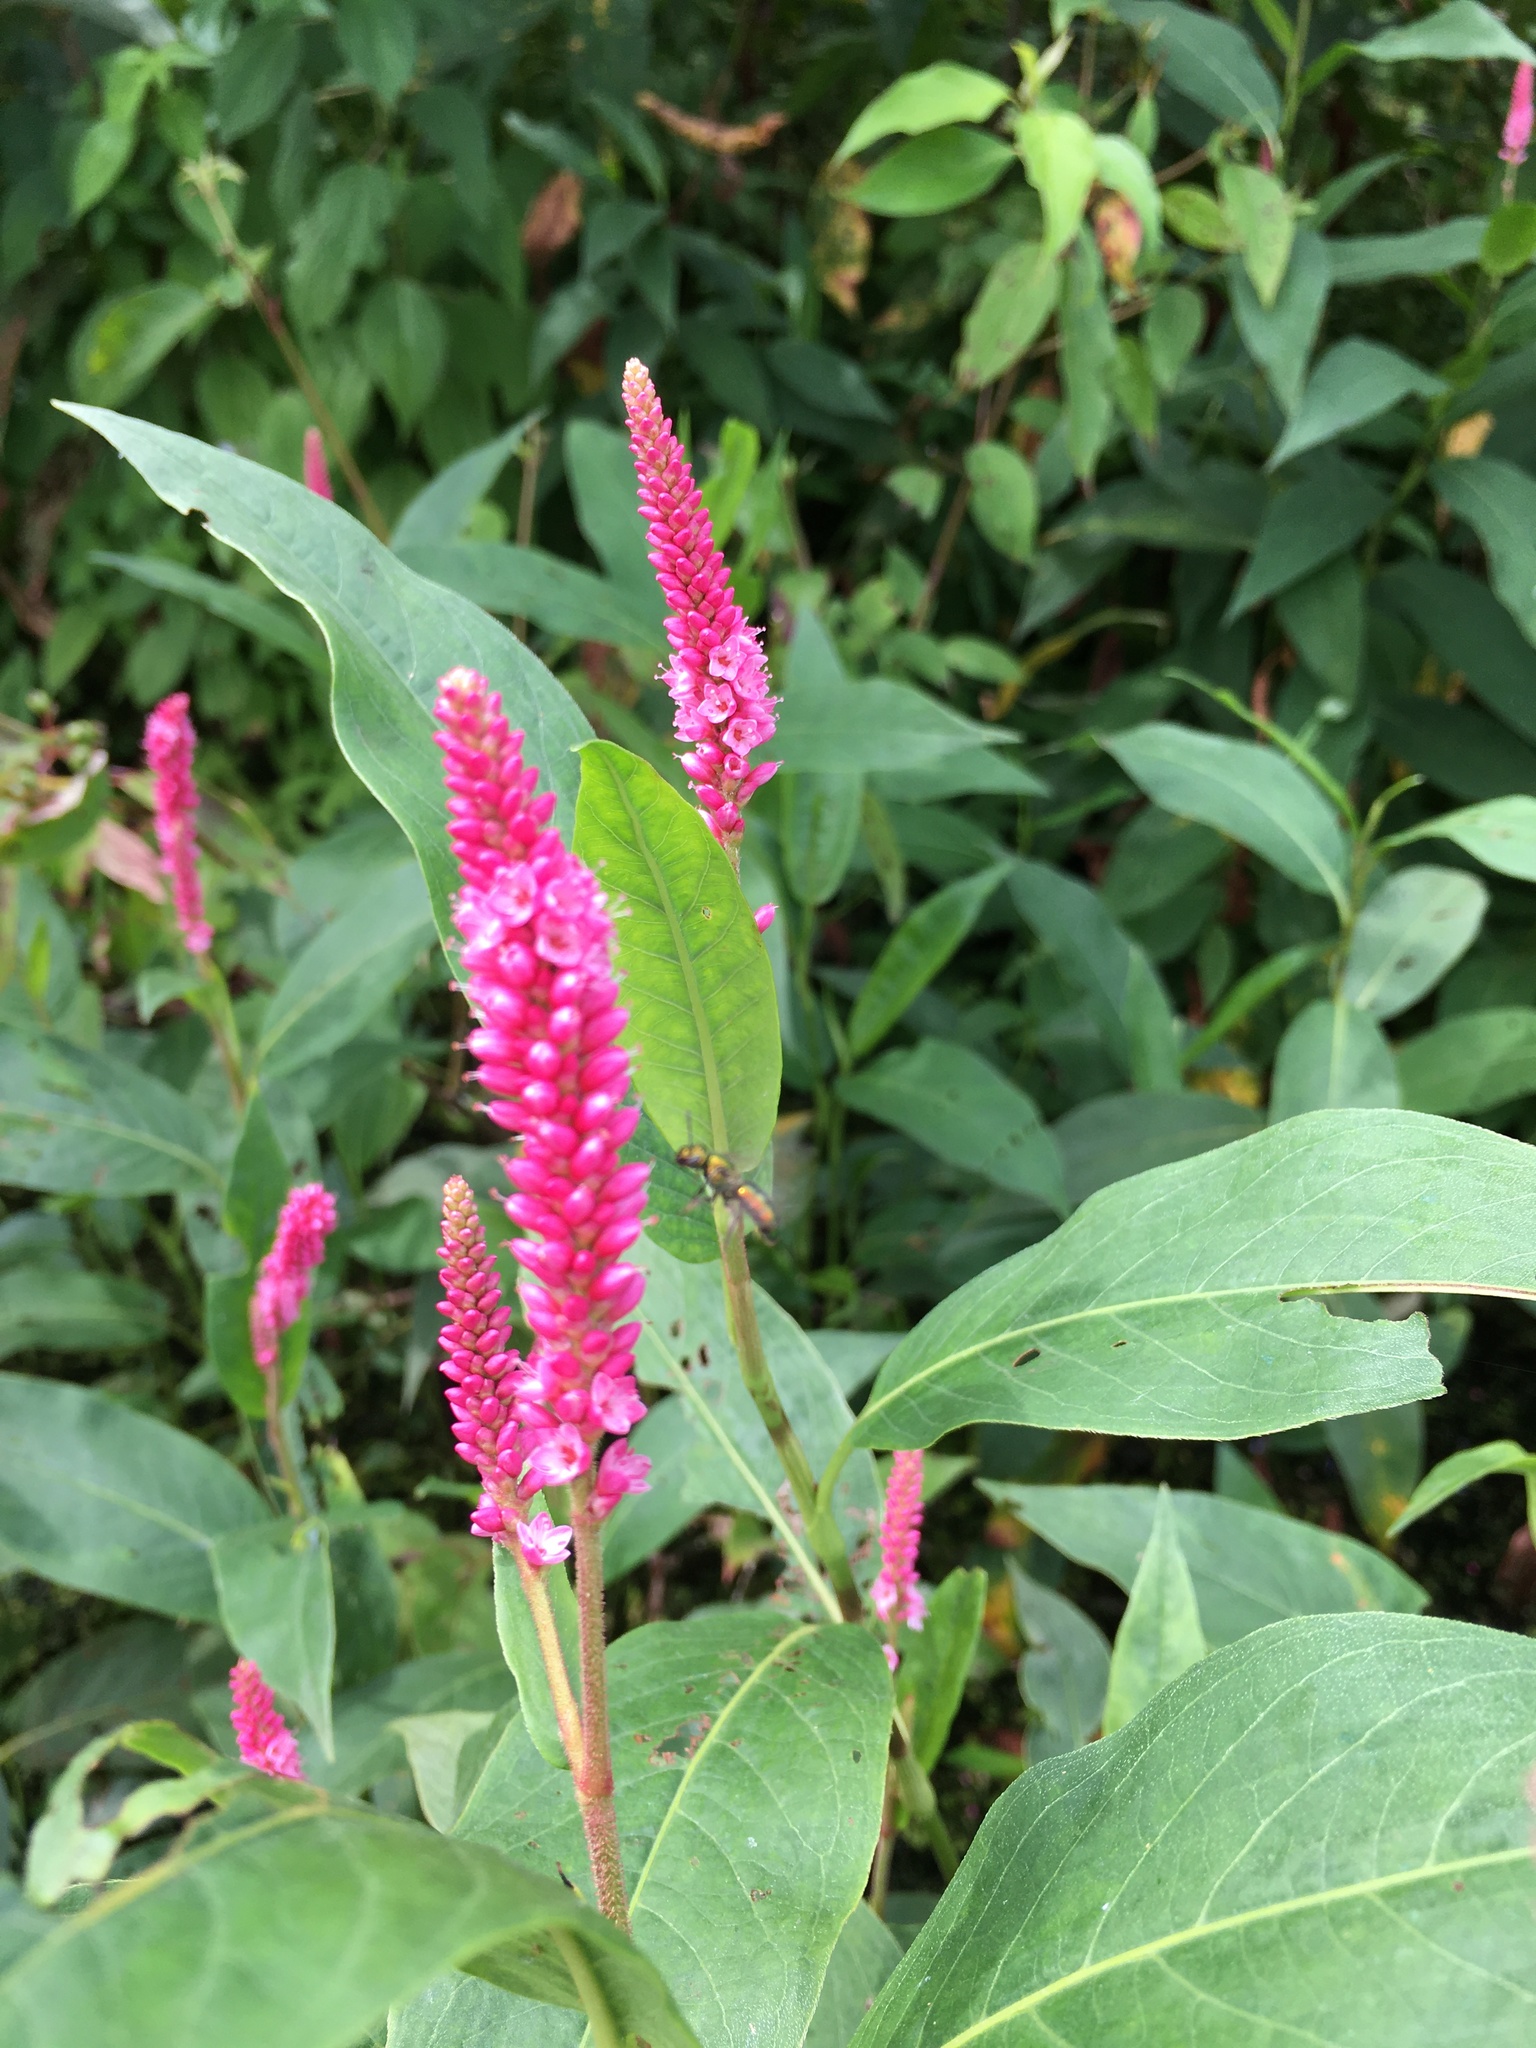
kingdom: Plantae
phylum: Tracheophyta
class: Magnoliopsida
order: Caryophyllales
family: Polygonaceae
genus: Persicaria
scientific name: Persicaria amphibia
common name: Amphibious bistort
